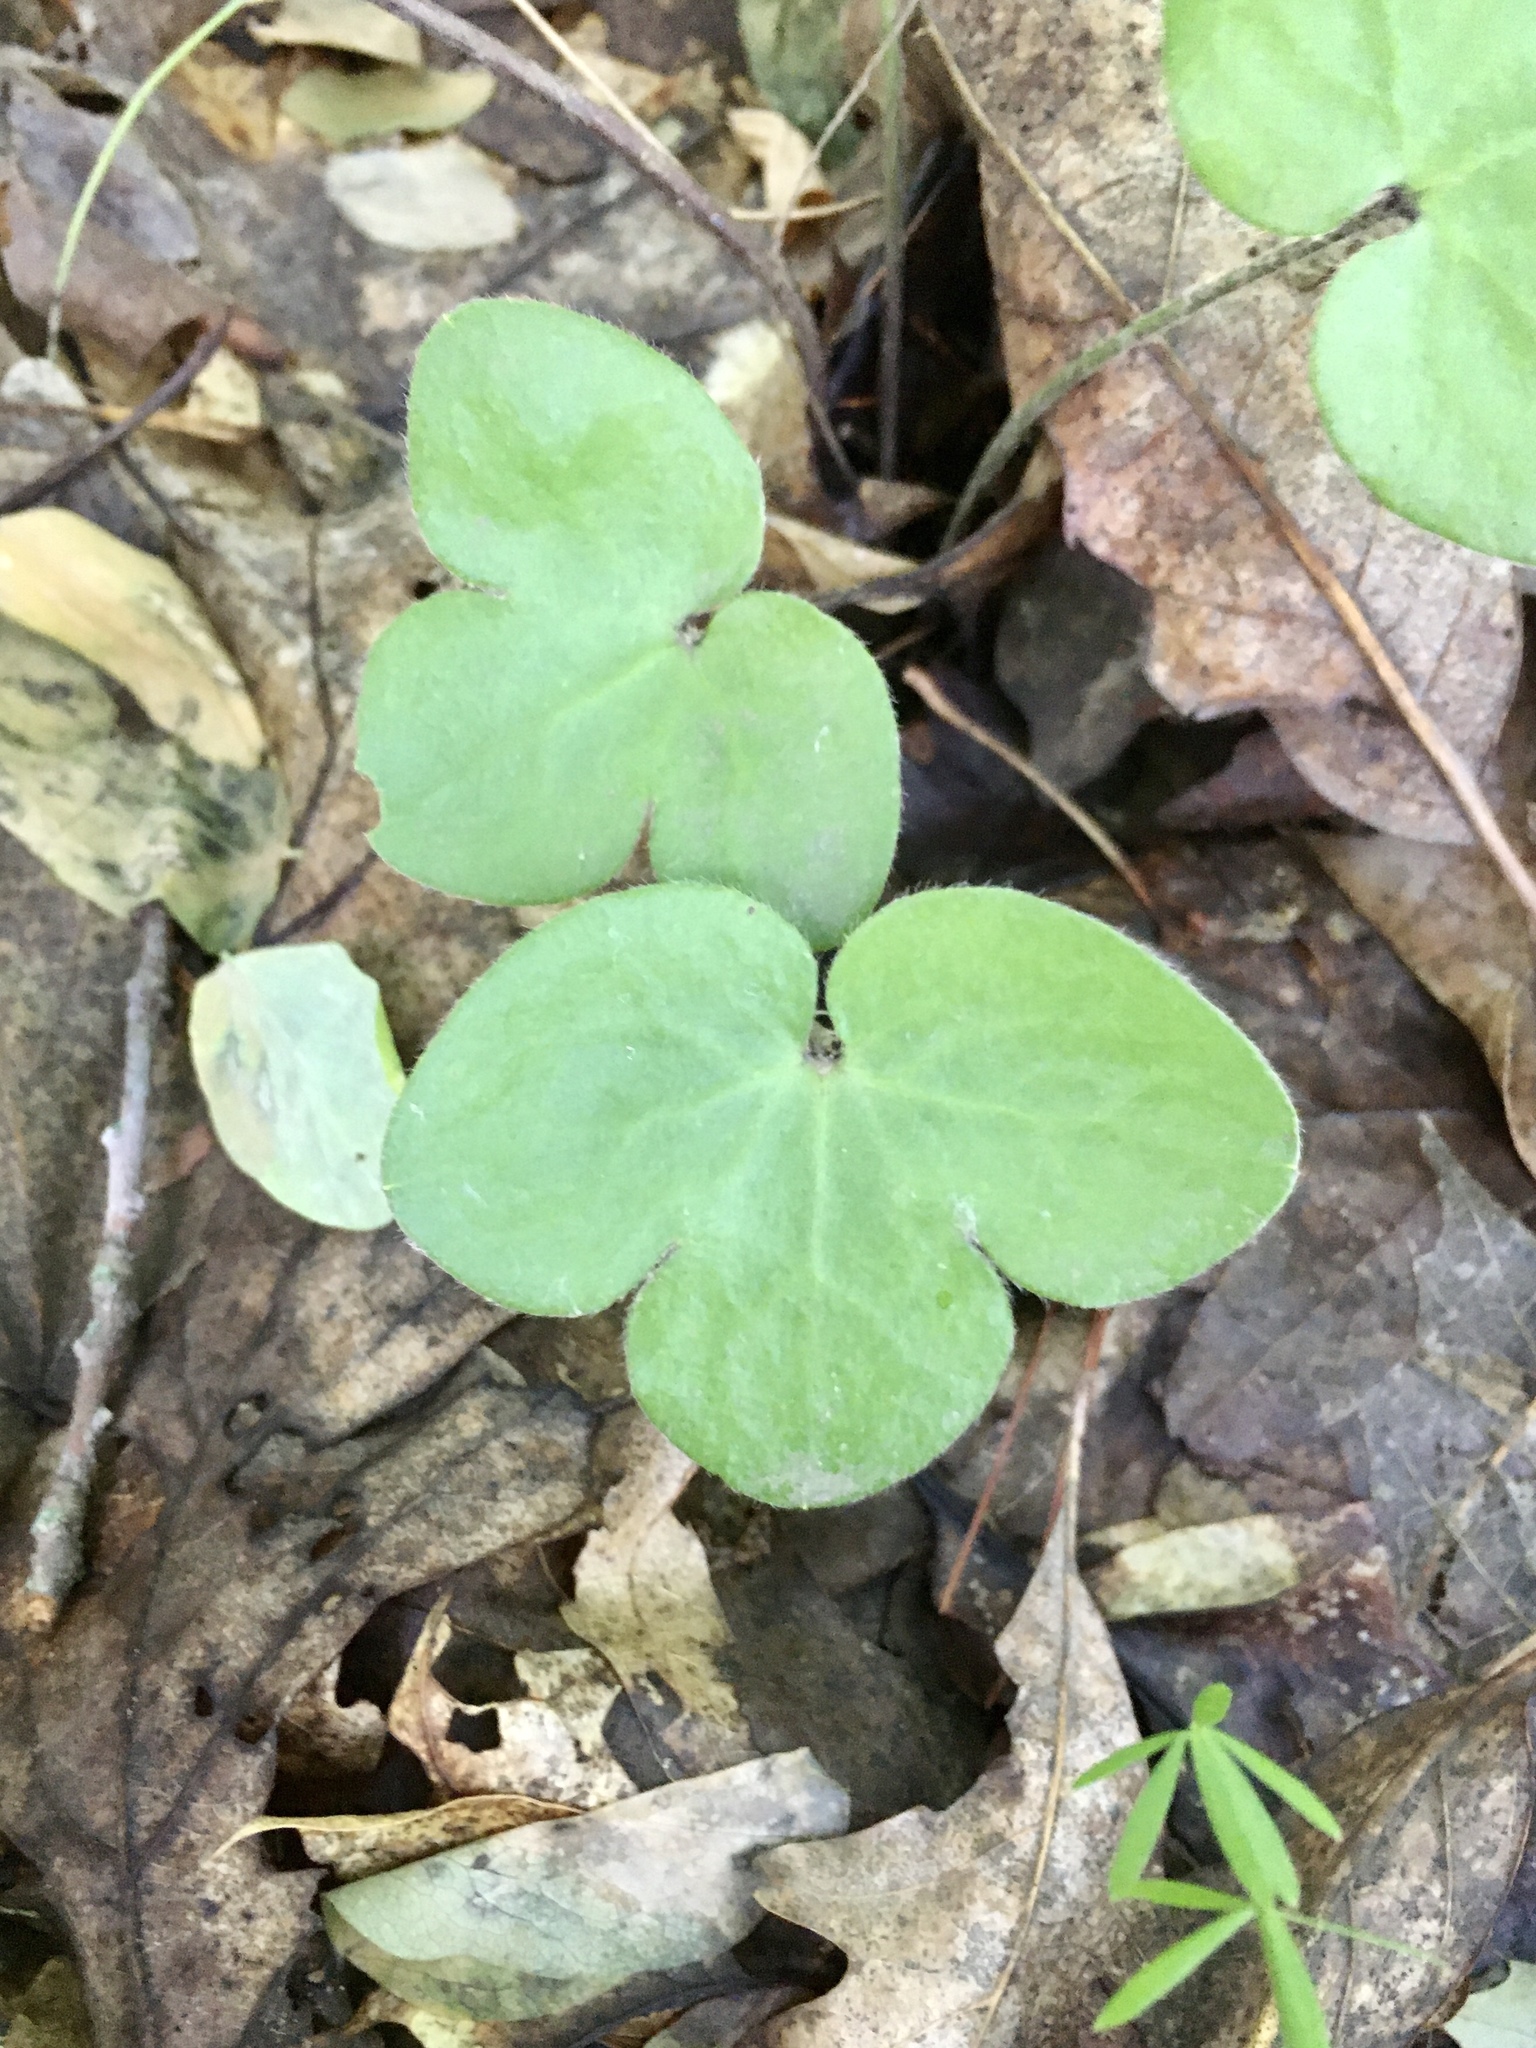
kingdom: Plantae
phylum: Tracheophyta
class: Magnoliopsida
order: Ranunculales
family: Ranunculaceae
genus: Hepatica
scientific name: Hepatica americana
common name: American hepatica
